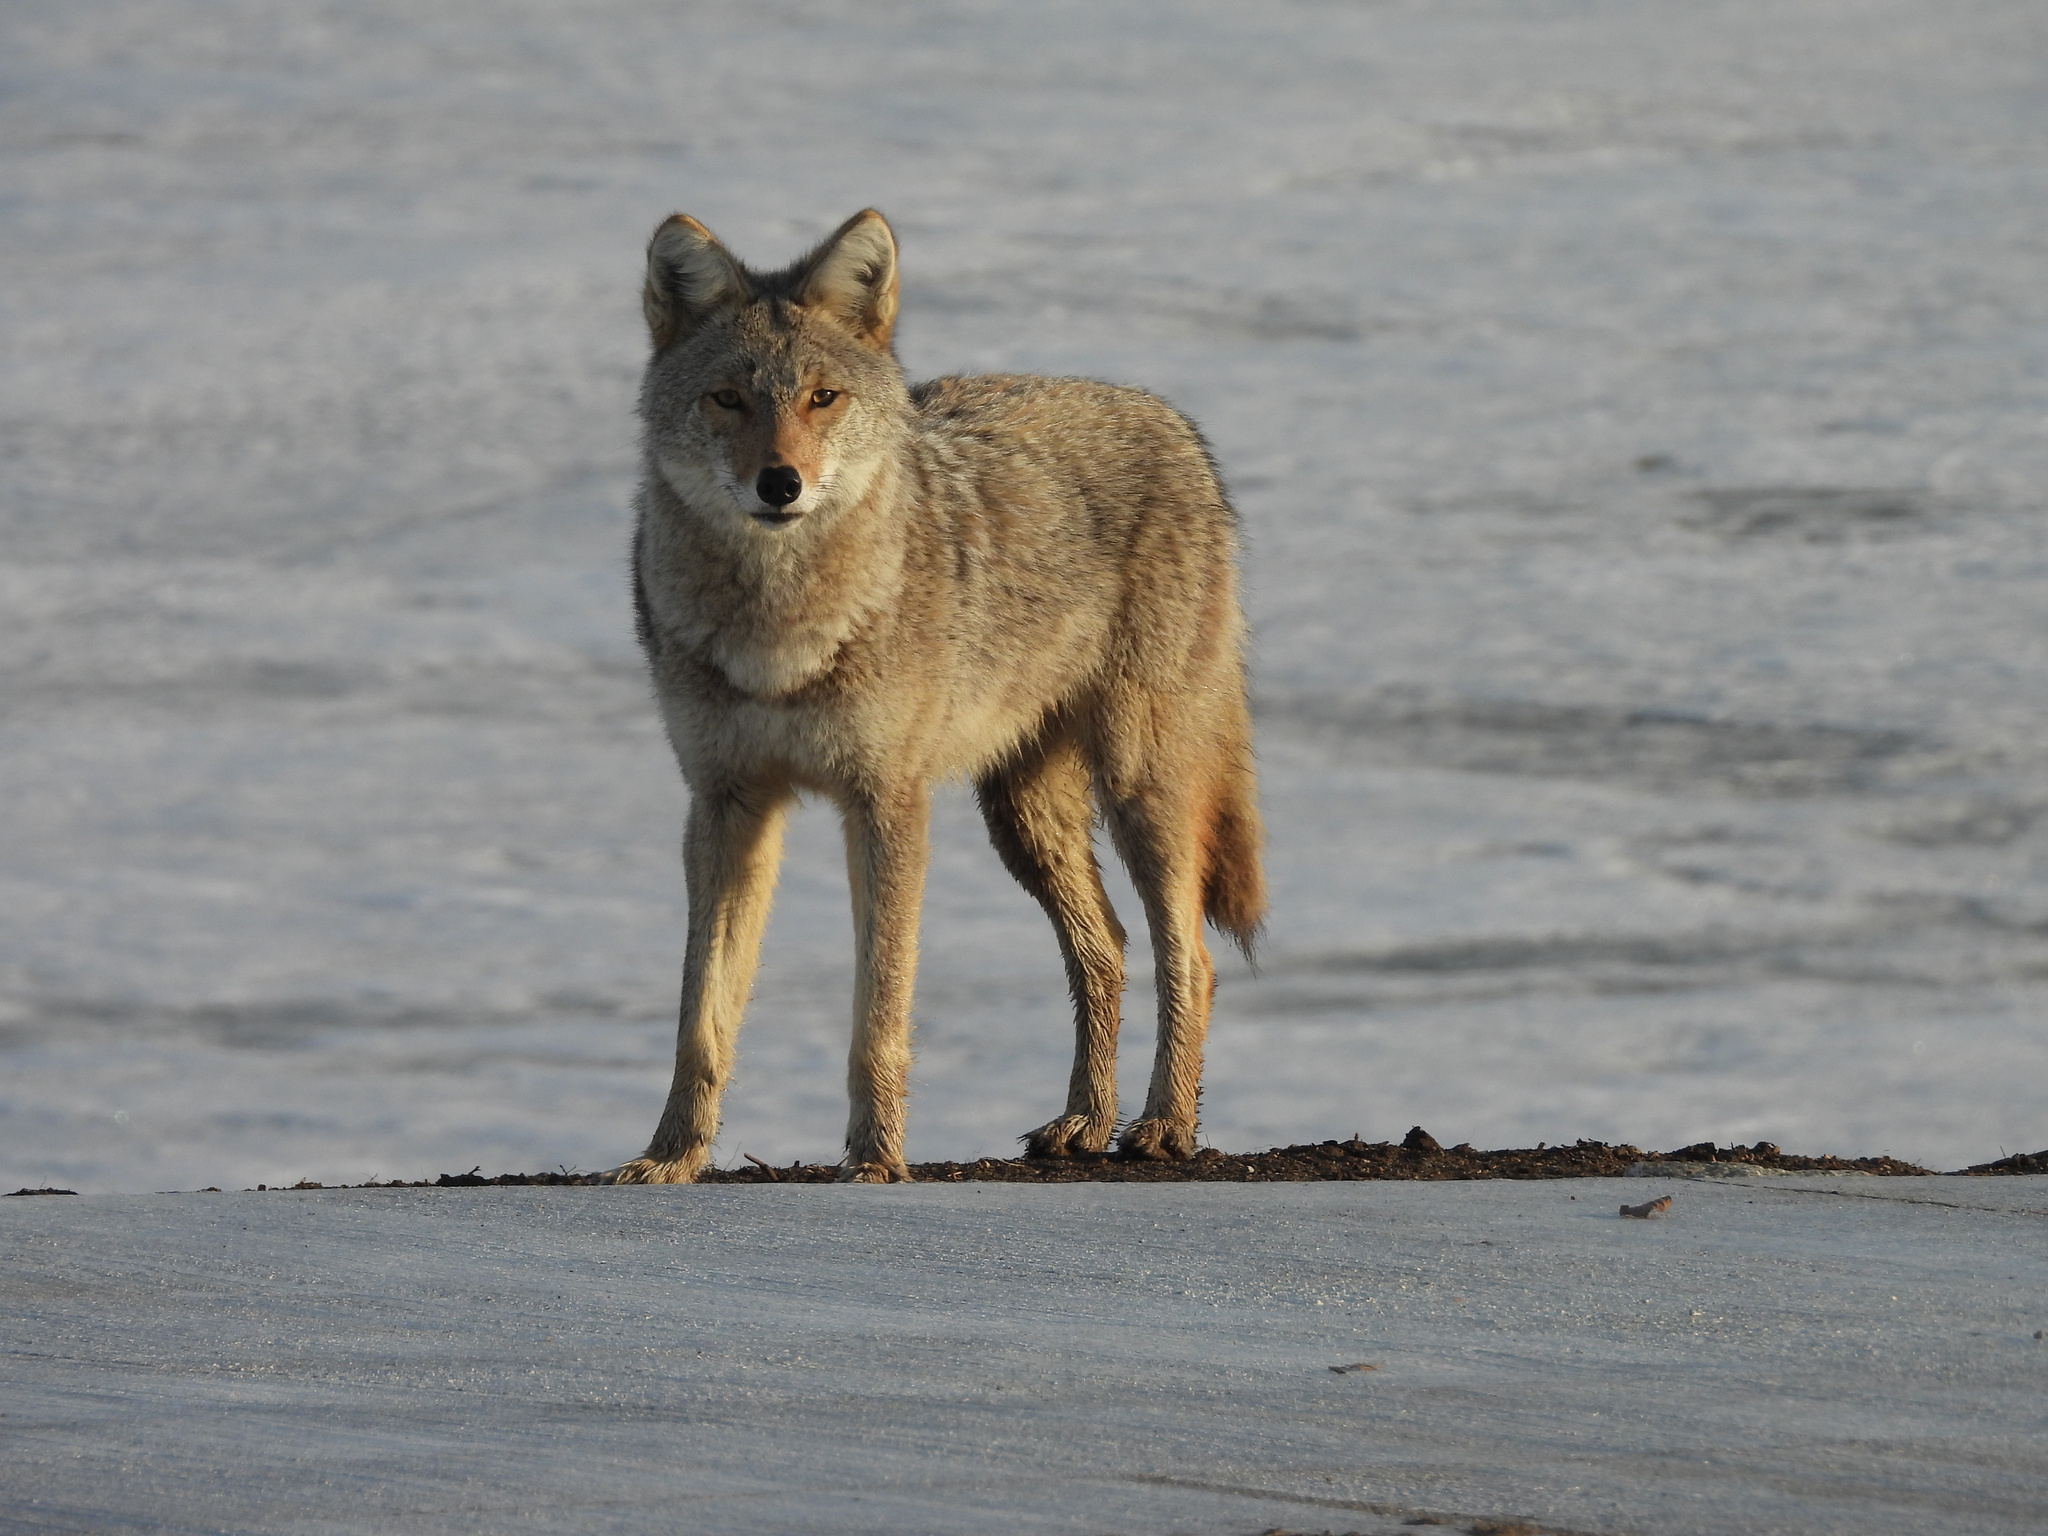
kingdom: Animalia
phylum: Chordata
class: Mammalia
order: Carnivora
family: Canidae
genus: Canis
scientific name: Canis latrans
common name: Coyote
